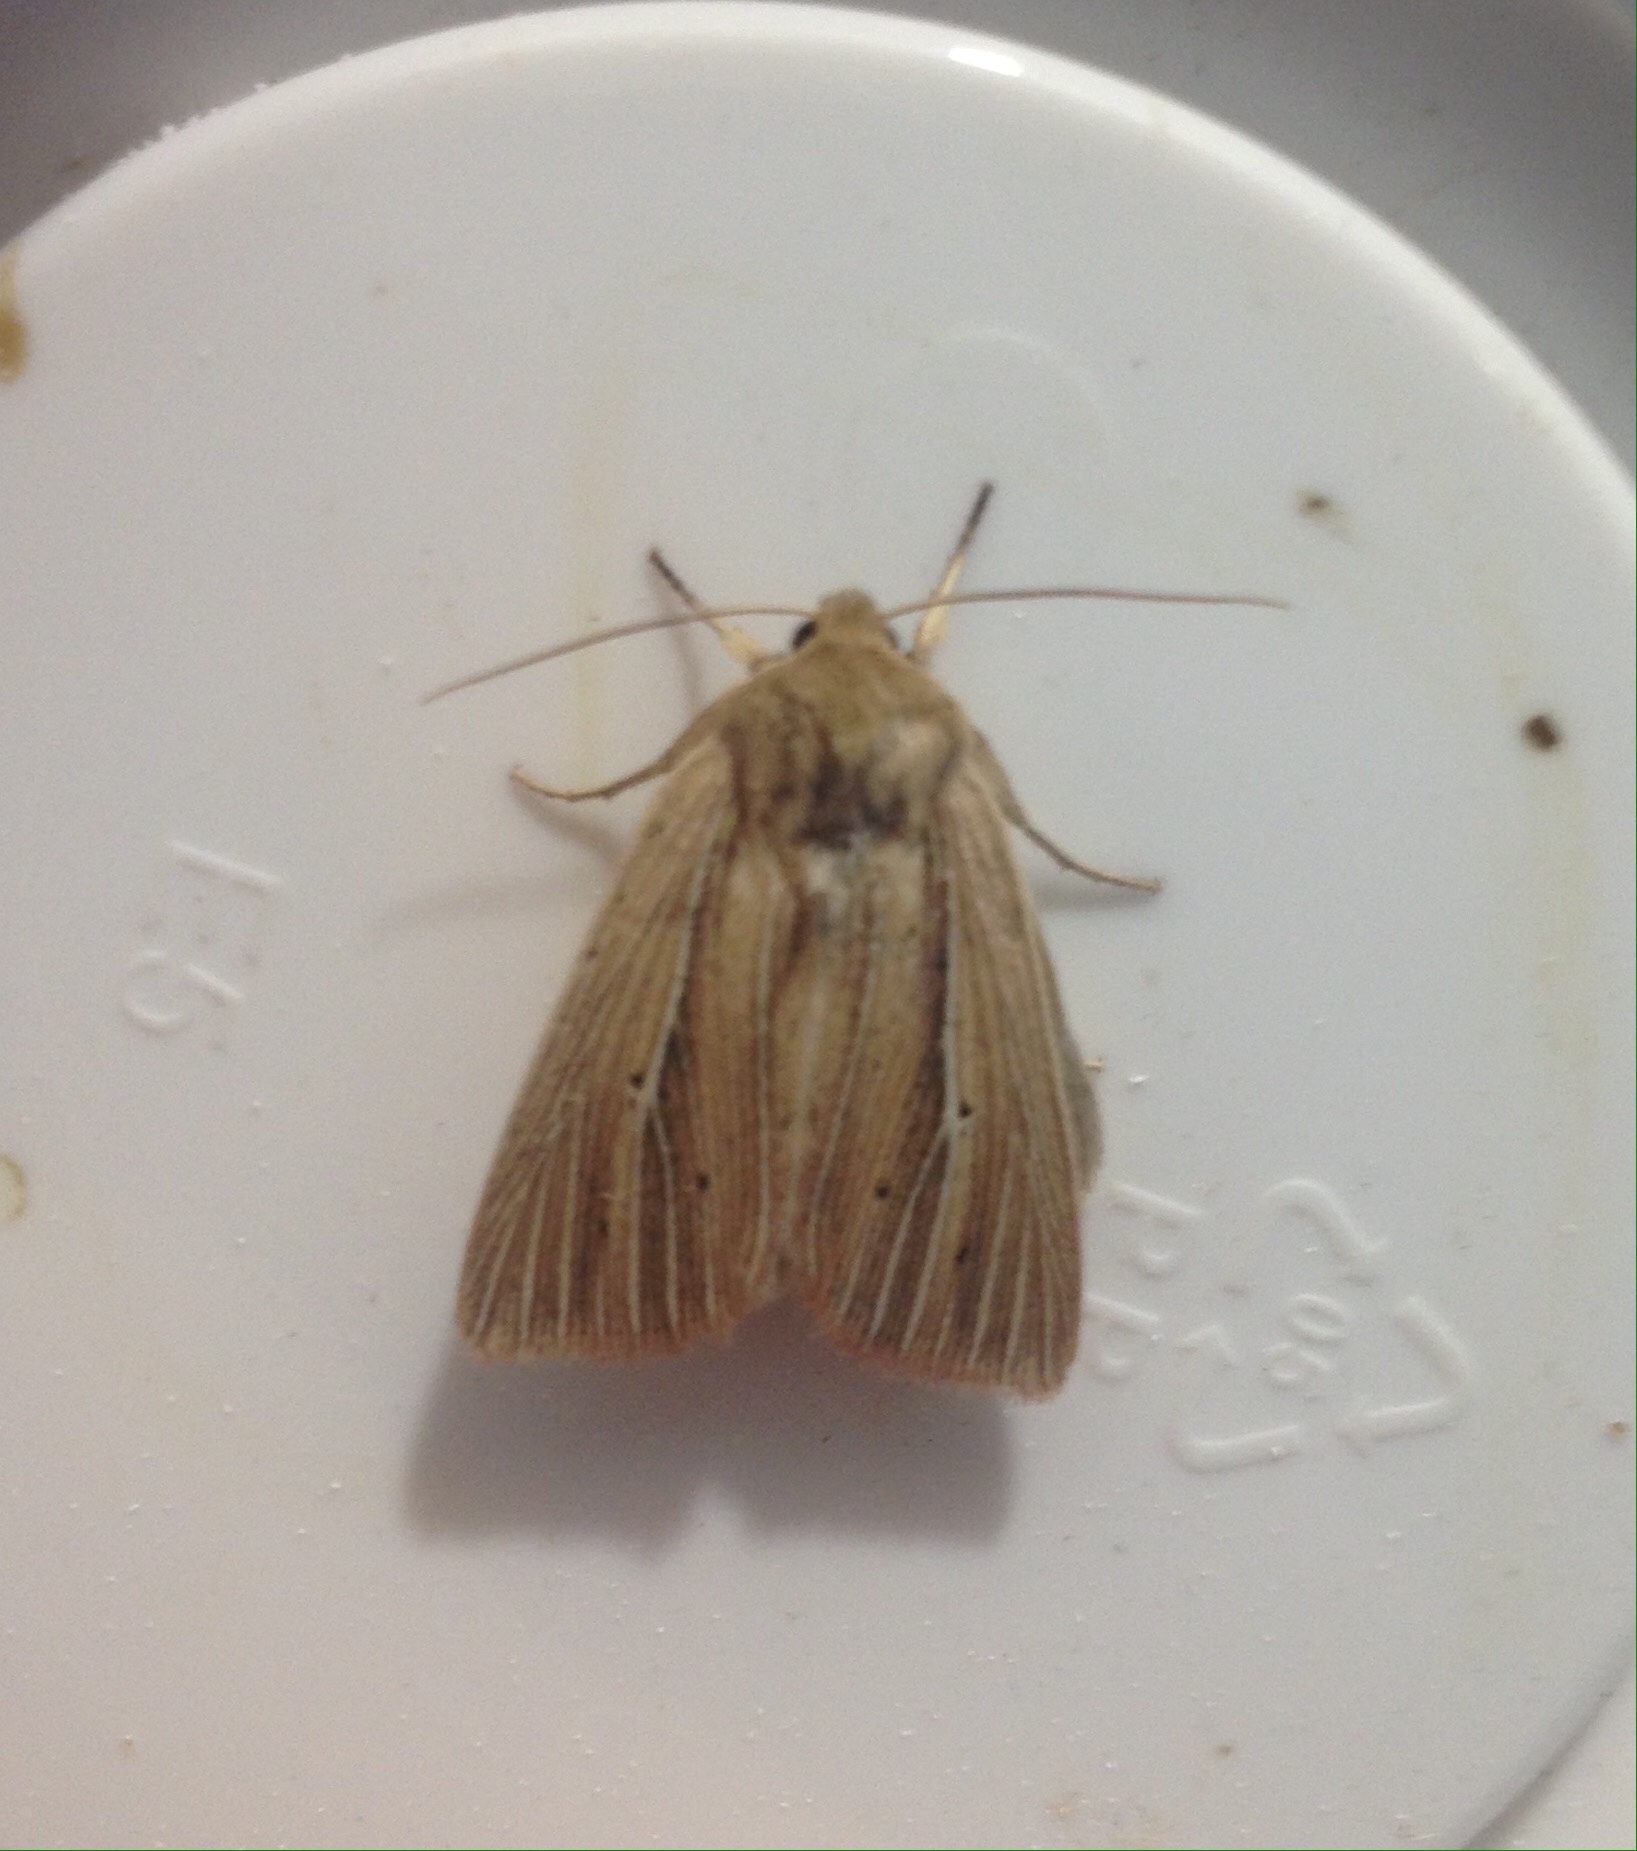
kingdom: Animalia
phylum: Arthropoda
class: Insecta
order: Lepidoptera
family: Noctuidae
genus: Mythimna
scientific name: Mythimna impura
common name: Smoky wainscot
